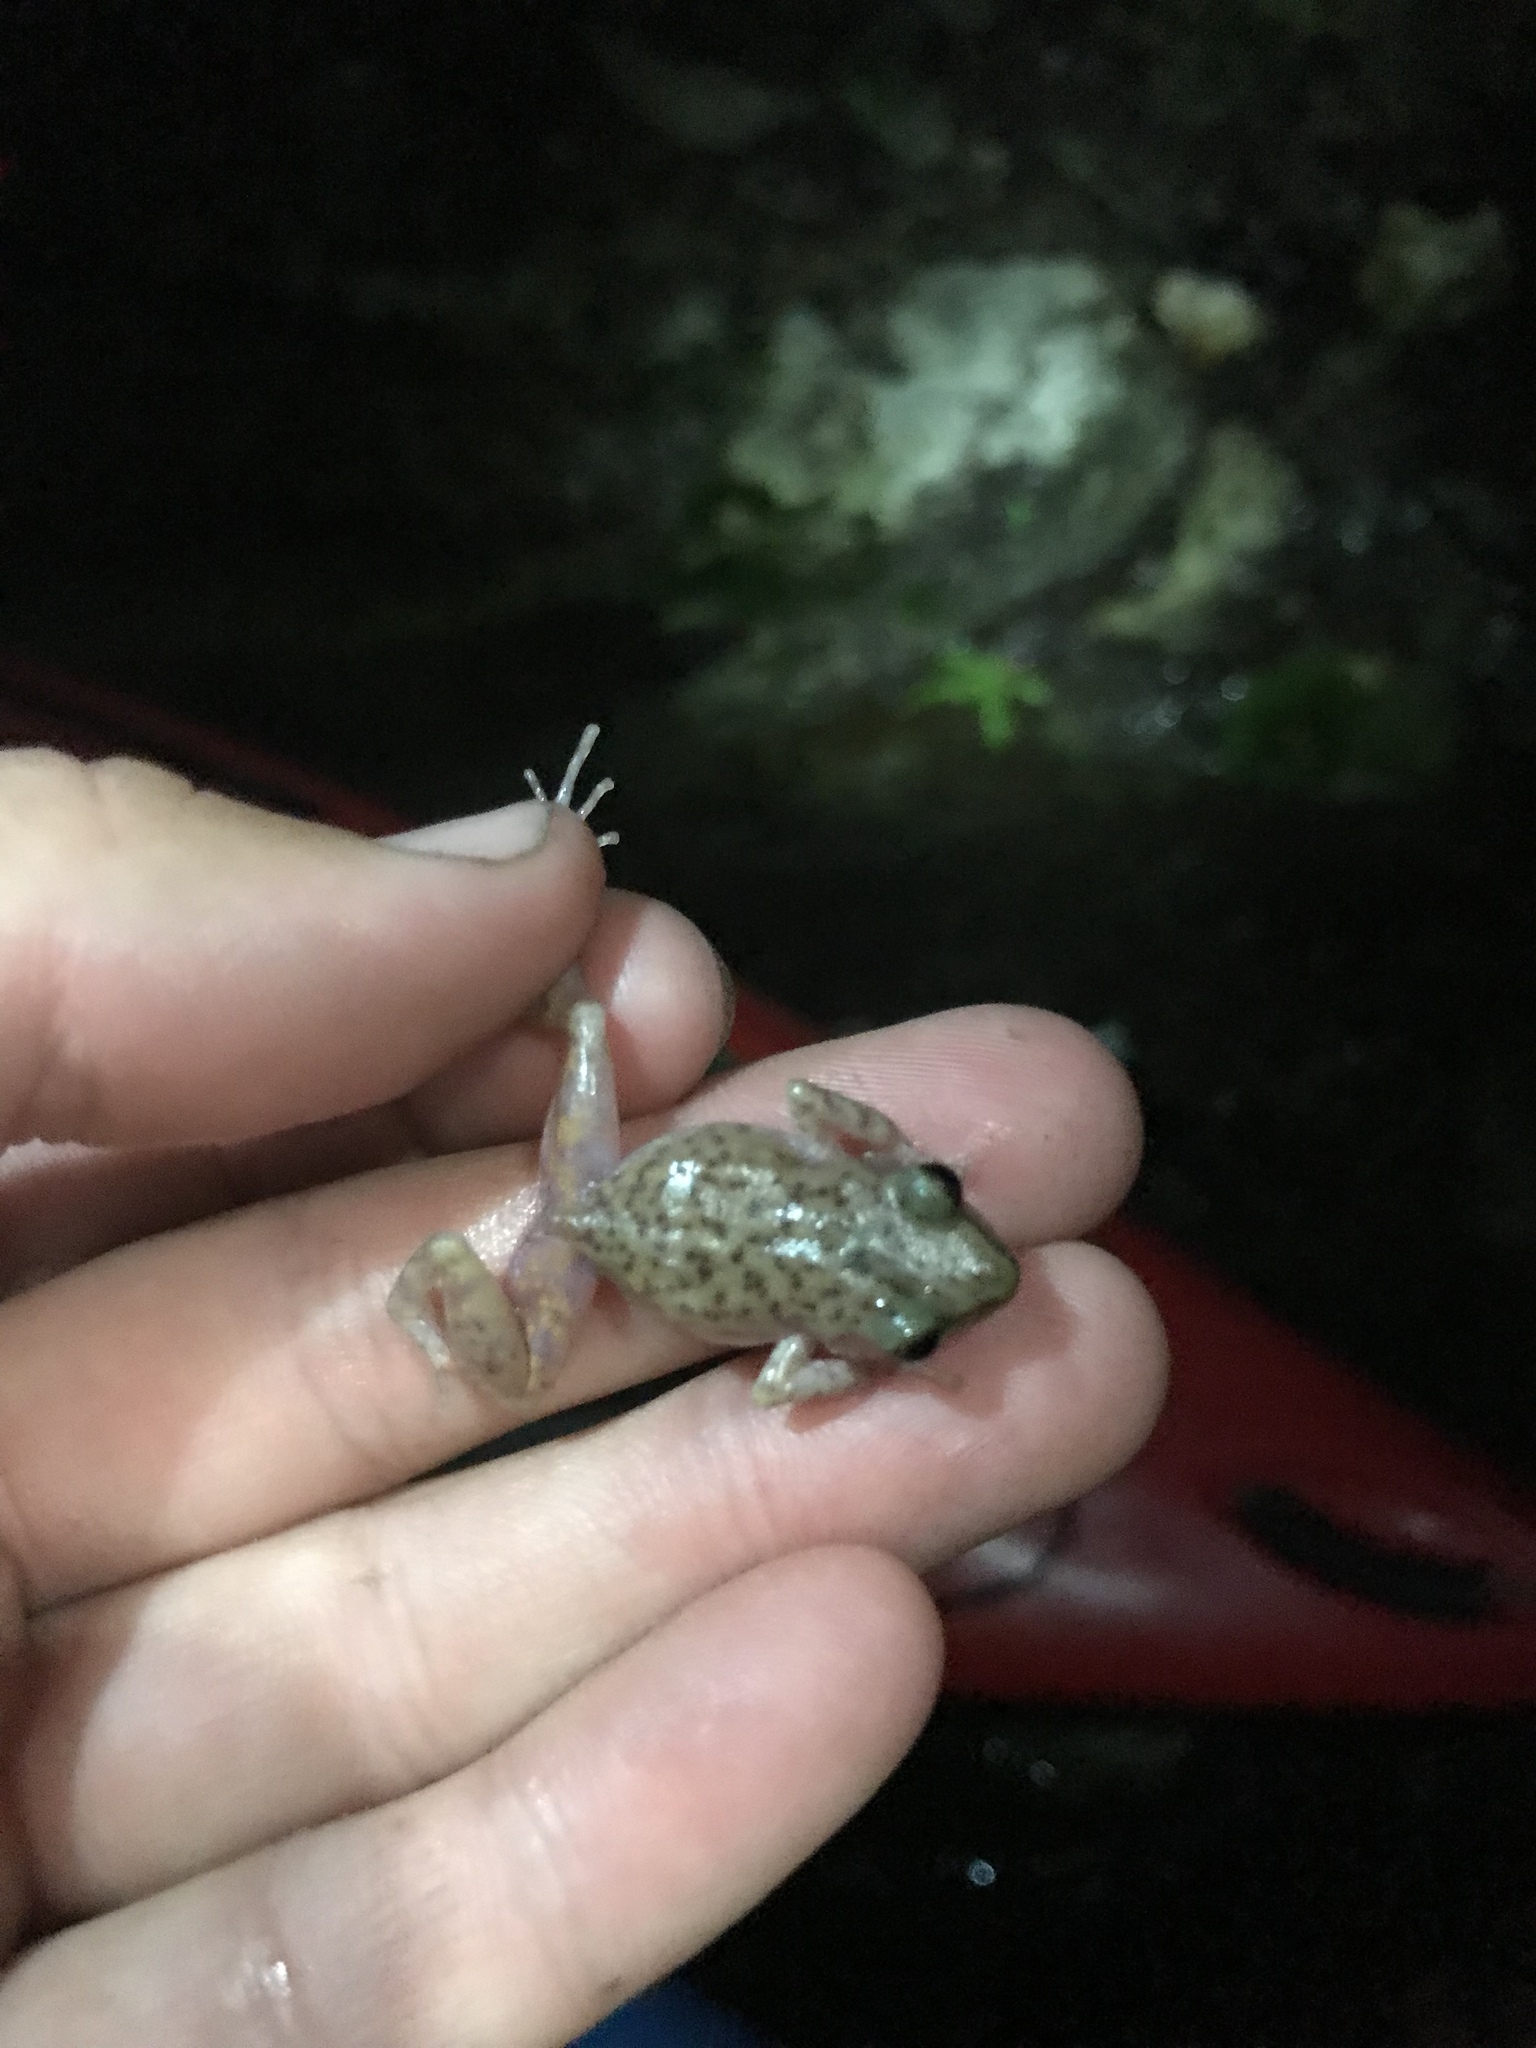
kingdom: Animalia
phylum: Chordata
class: Amphibia
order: Anura
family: Eleutherodactylidae
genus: Eleutherodactylus
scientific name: Eleutherodactylus marnockii
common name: Cliff chirping frog
